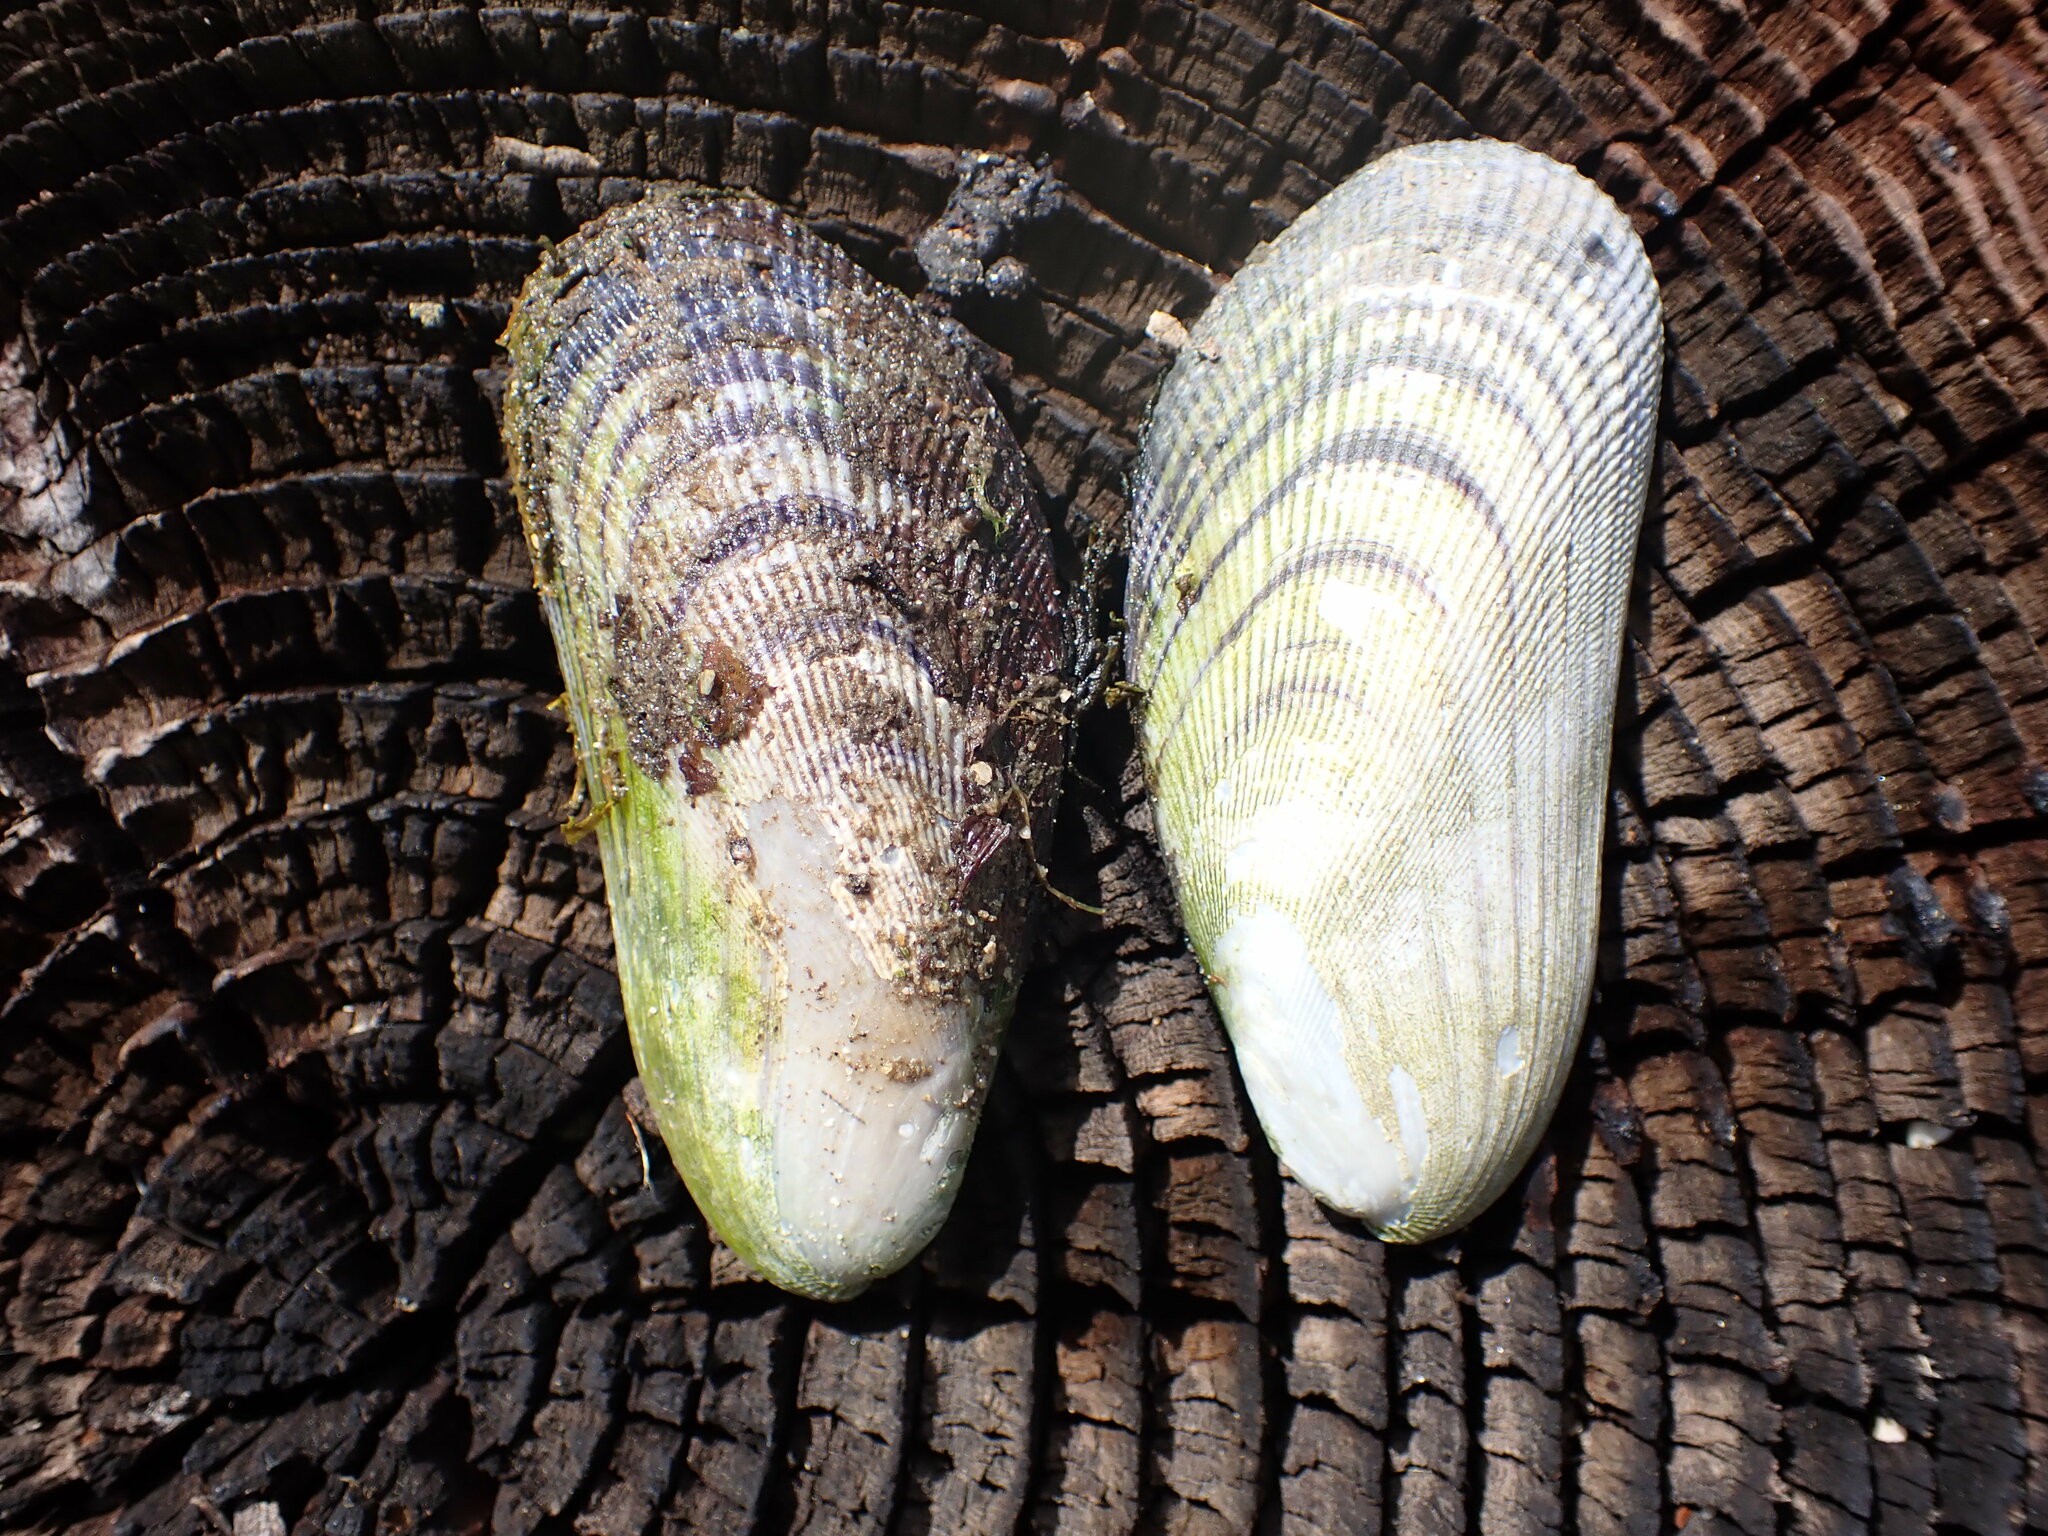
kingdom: Animalia
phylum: Mollusca
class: Bivalvia
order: Mytilida
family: Mytilidae
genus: Geukensia
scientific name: Geukensia demissa
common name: Ribbed mussel
